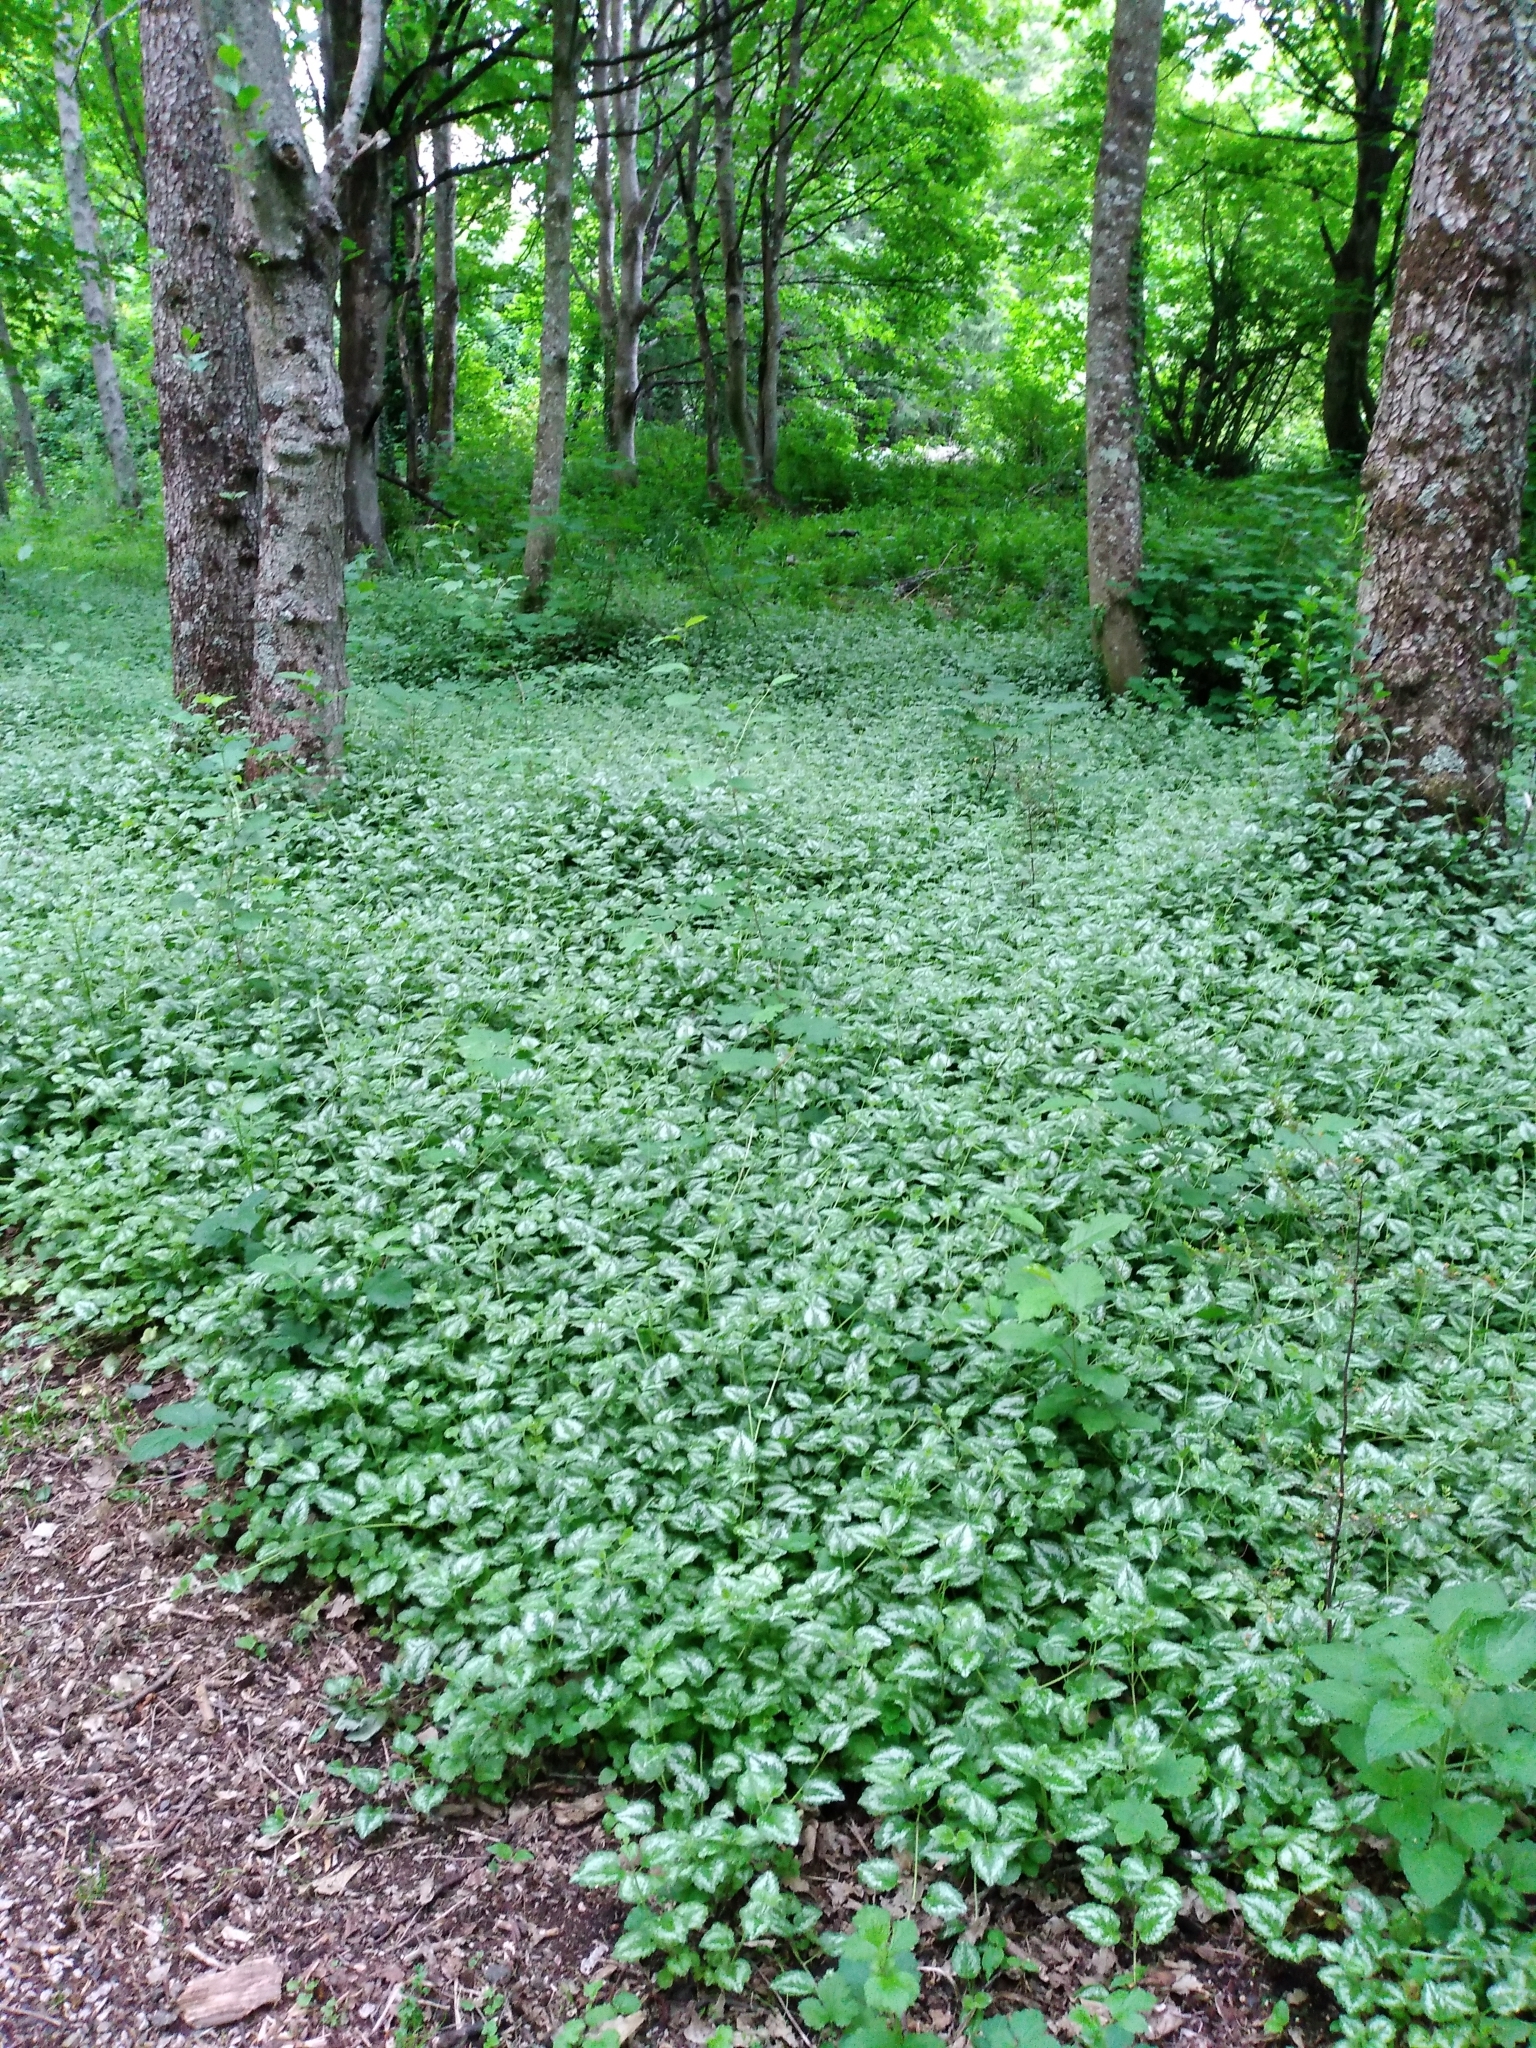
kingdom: Plantae
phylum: Tracheophyta
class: Magnoliopsida
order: Lamiales
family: Lamiaceae
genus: Lamium
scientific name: Lamium galeobdolon
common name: Yellow archangel
